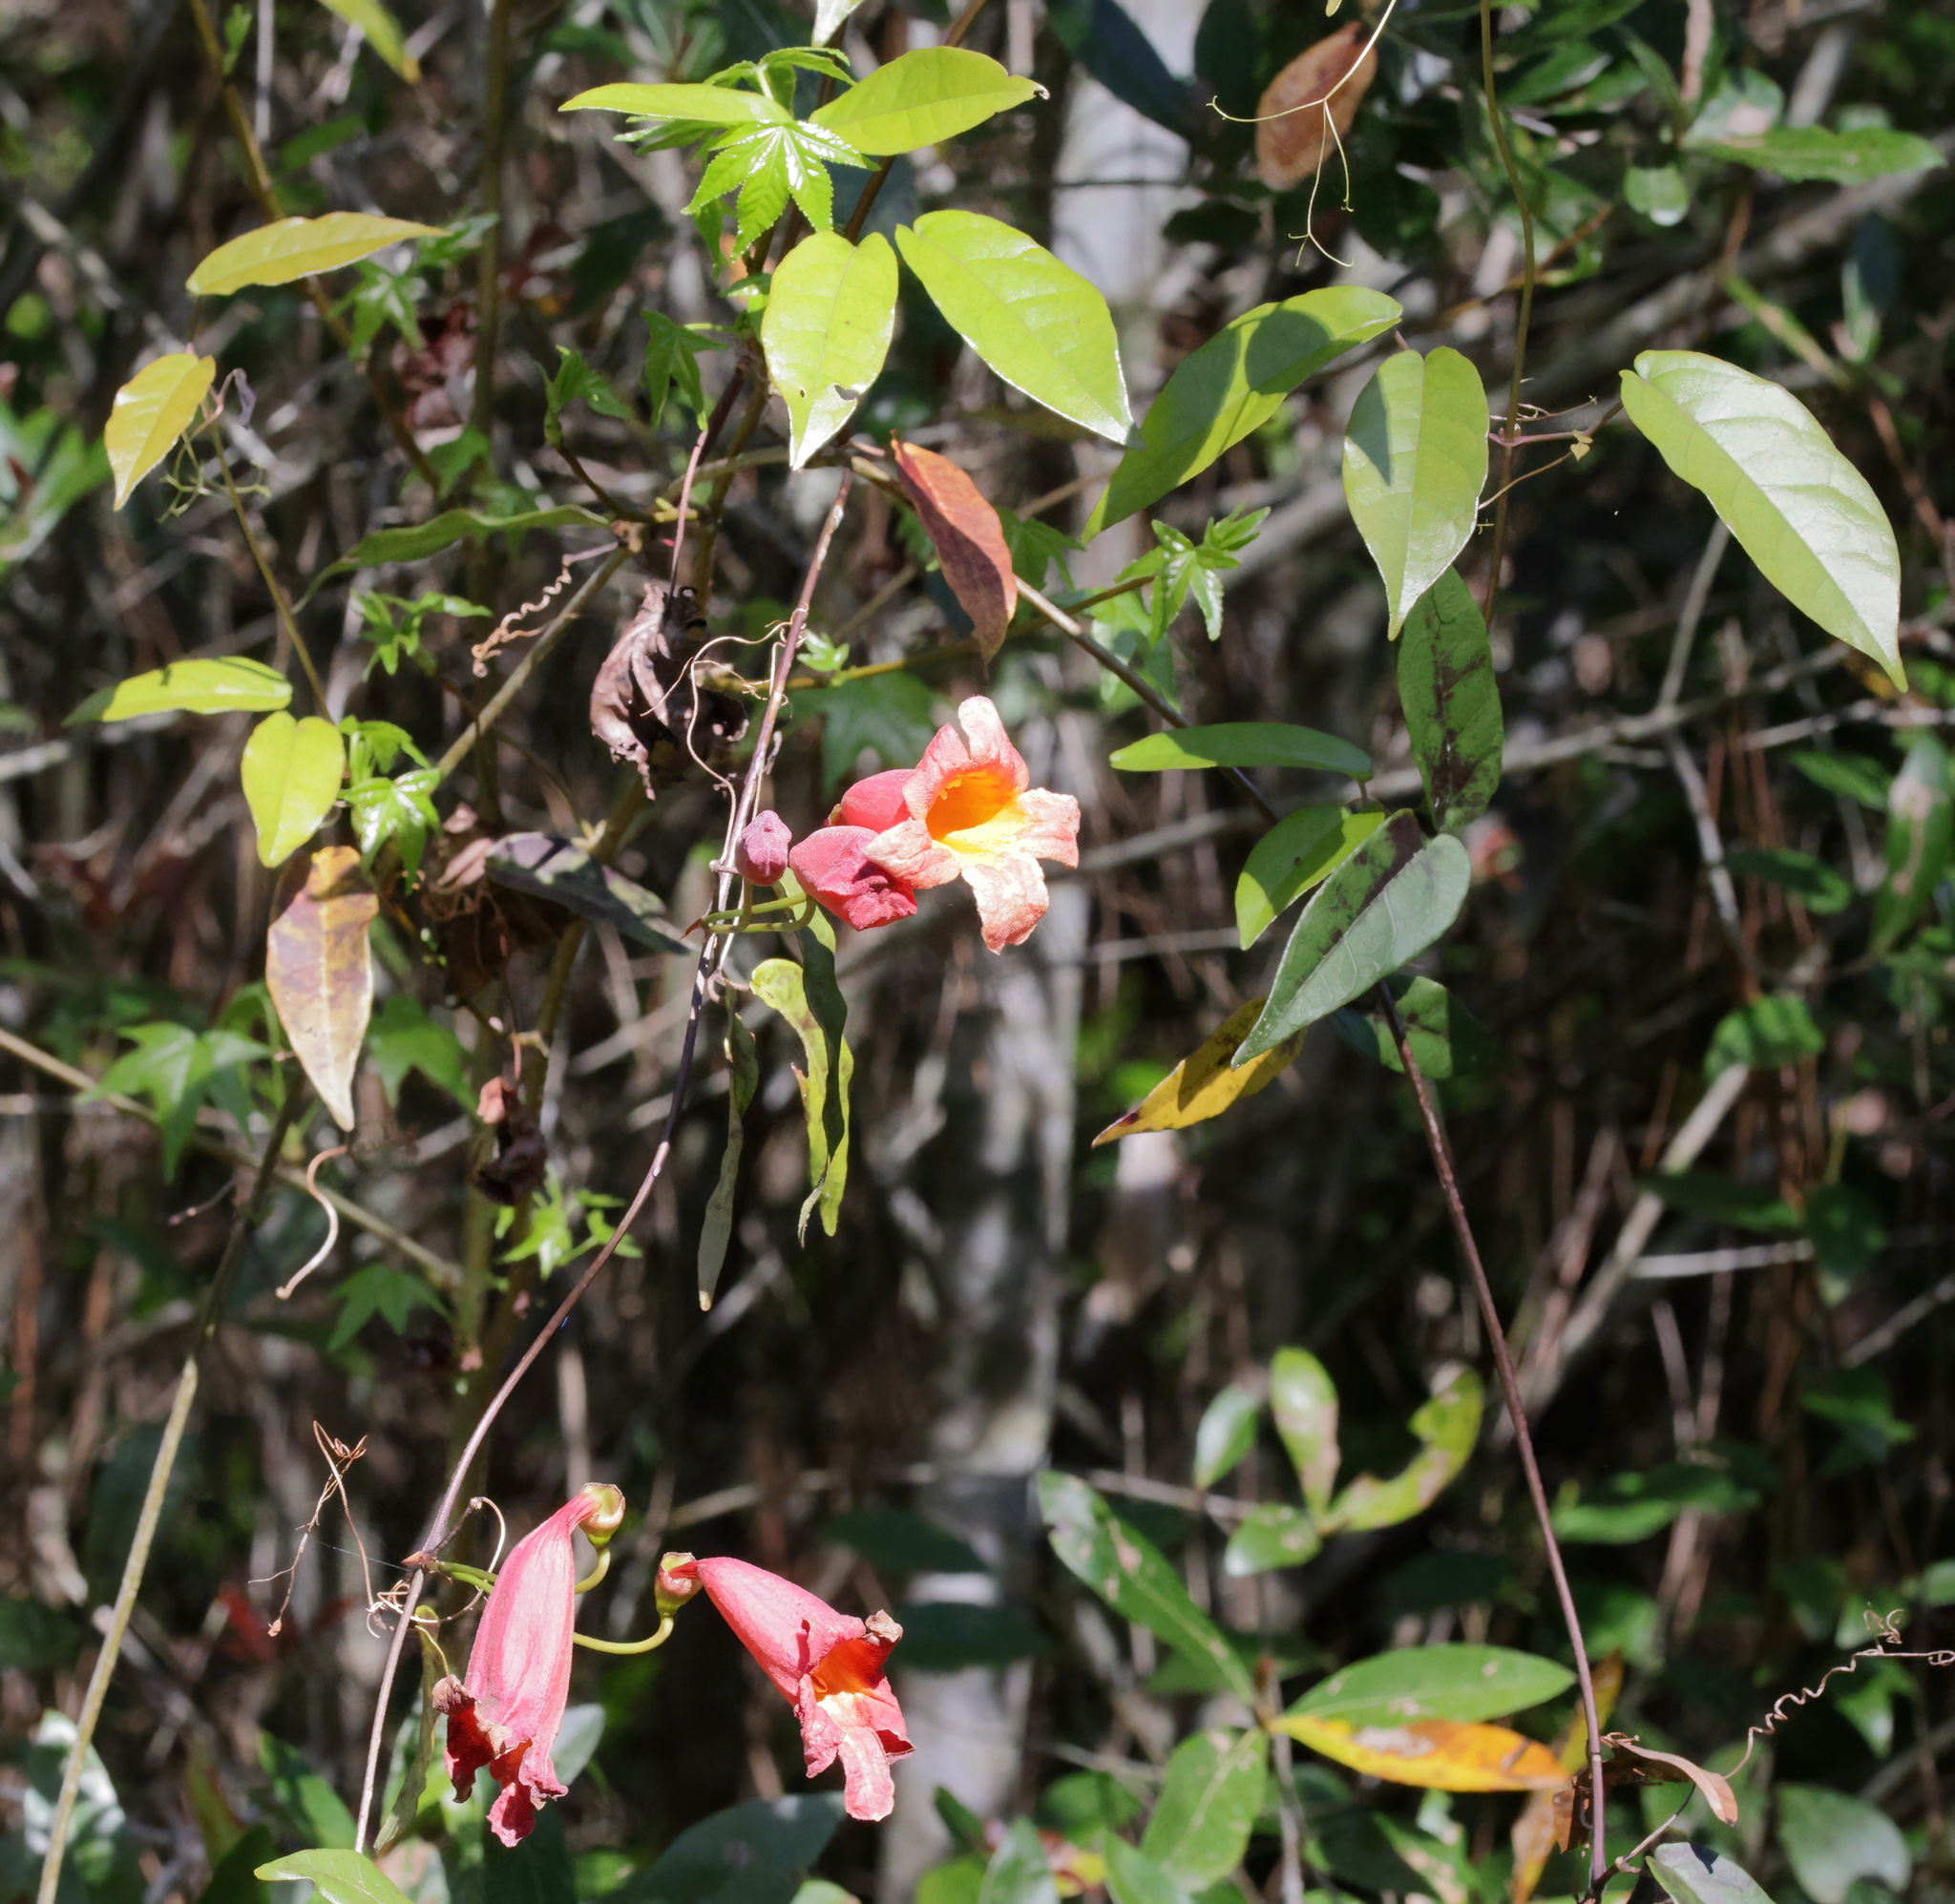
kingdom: Plantae
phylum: Tracheophyta
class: Magnoliopsida
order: Lamiales
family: Bignoniaceae
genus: Bignonia
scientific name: Bignonia capreolata
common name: Crossvine
